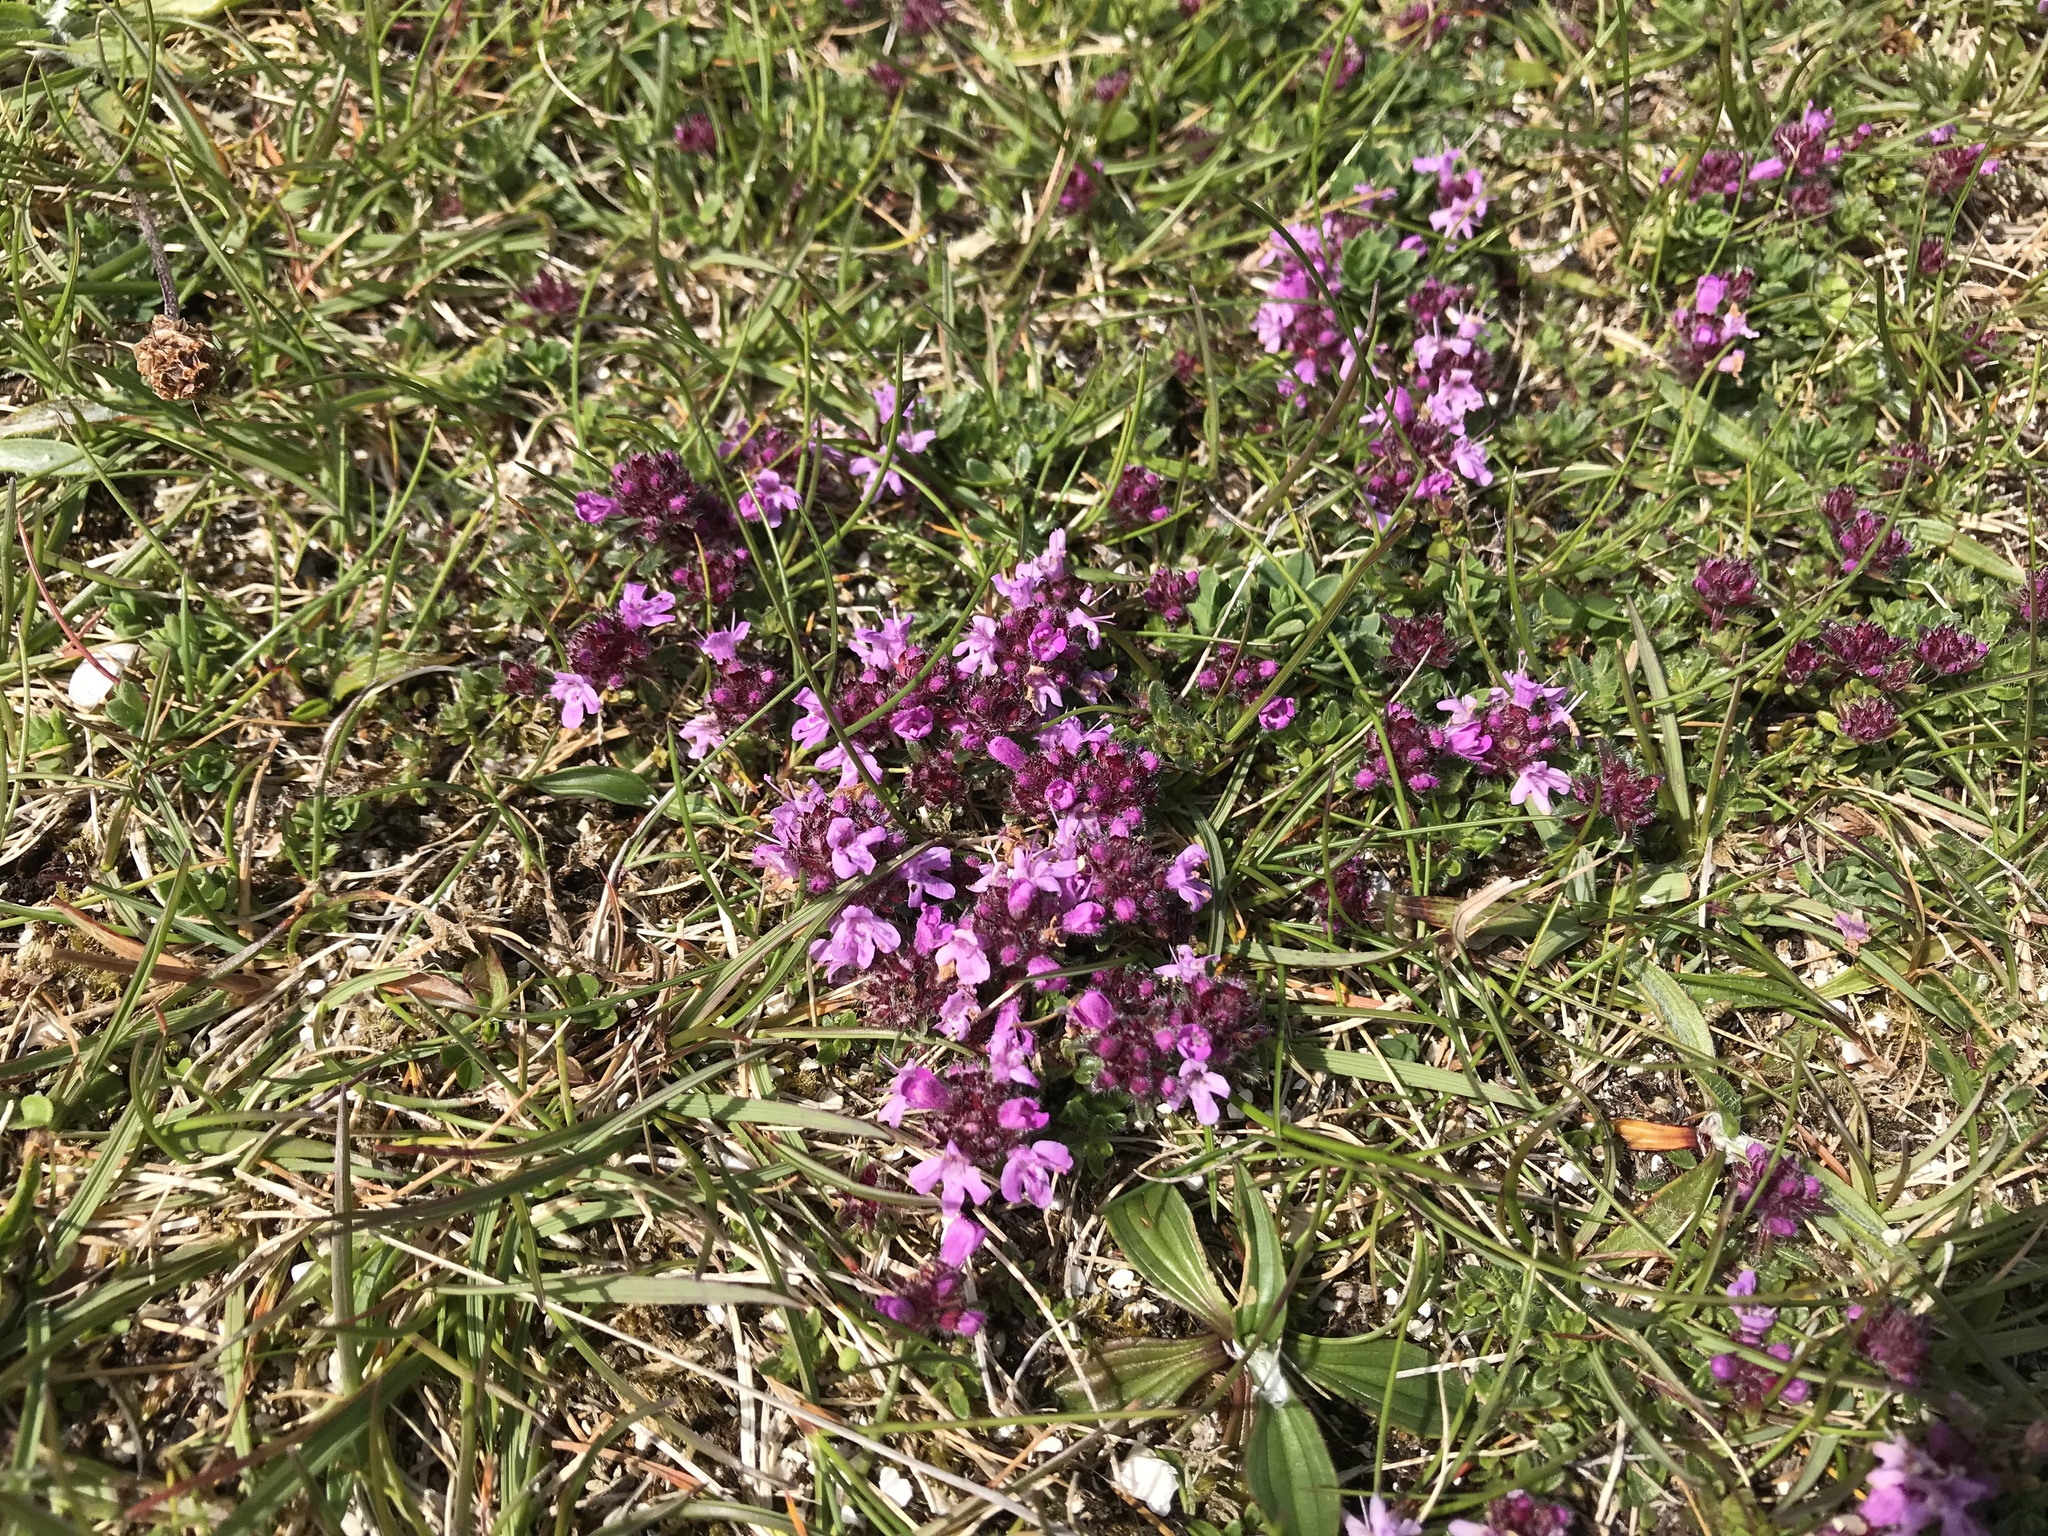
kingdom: Plantae
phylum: Tracheophyta
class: Magnoliopsida
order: Lamiales
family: Lamiaceae
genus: Thymus
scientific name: Thymus praecox
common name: Wild thyme
